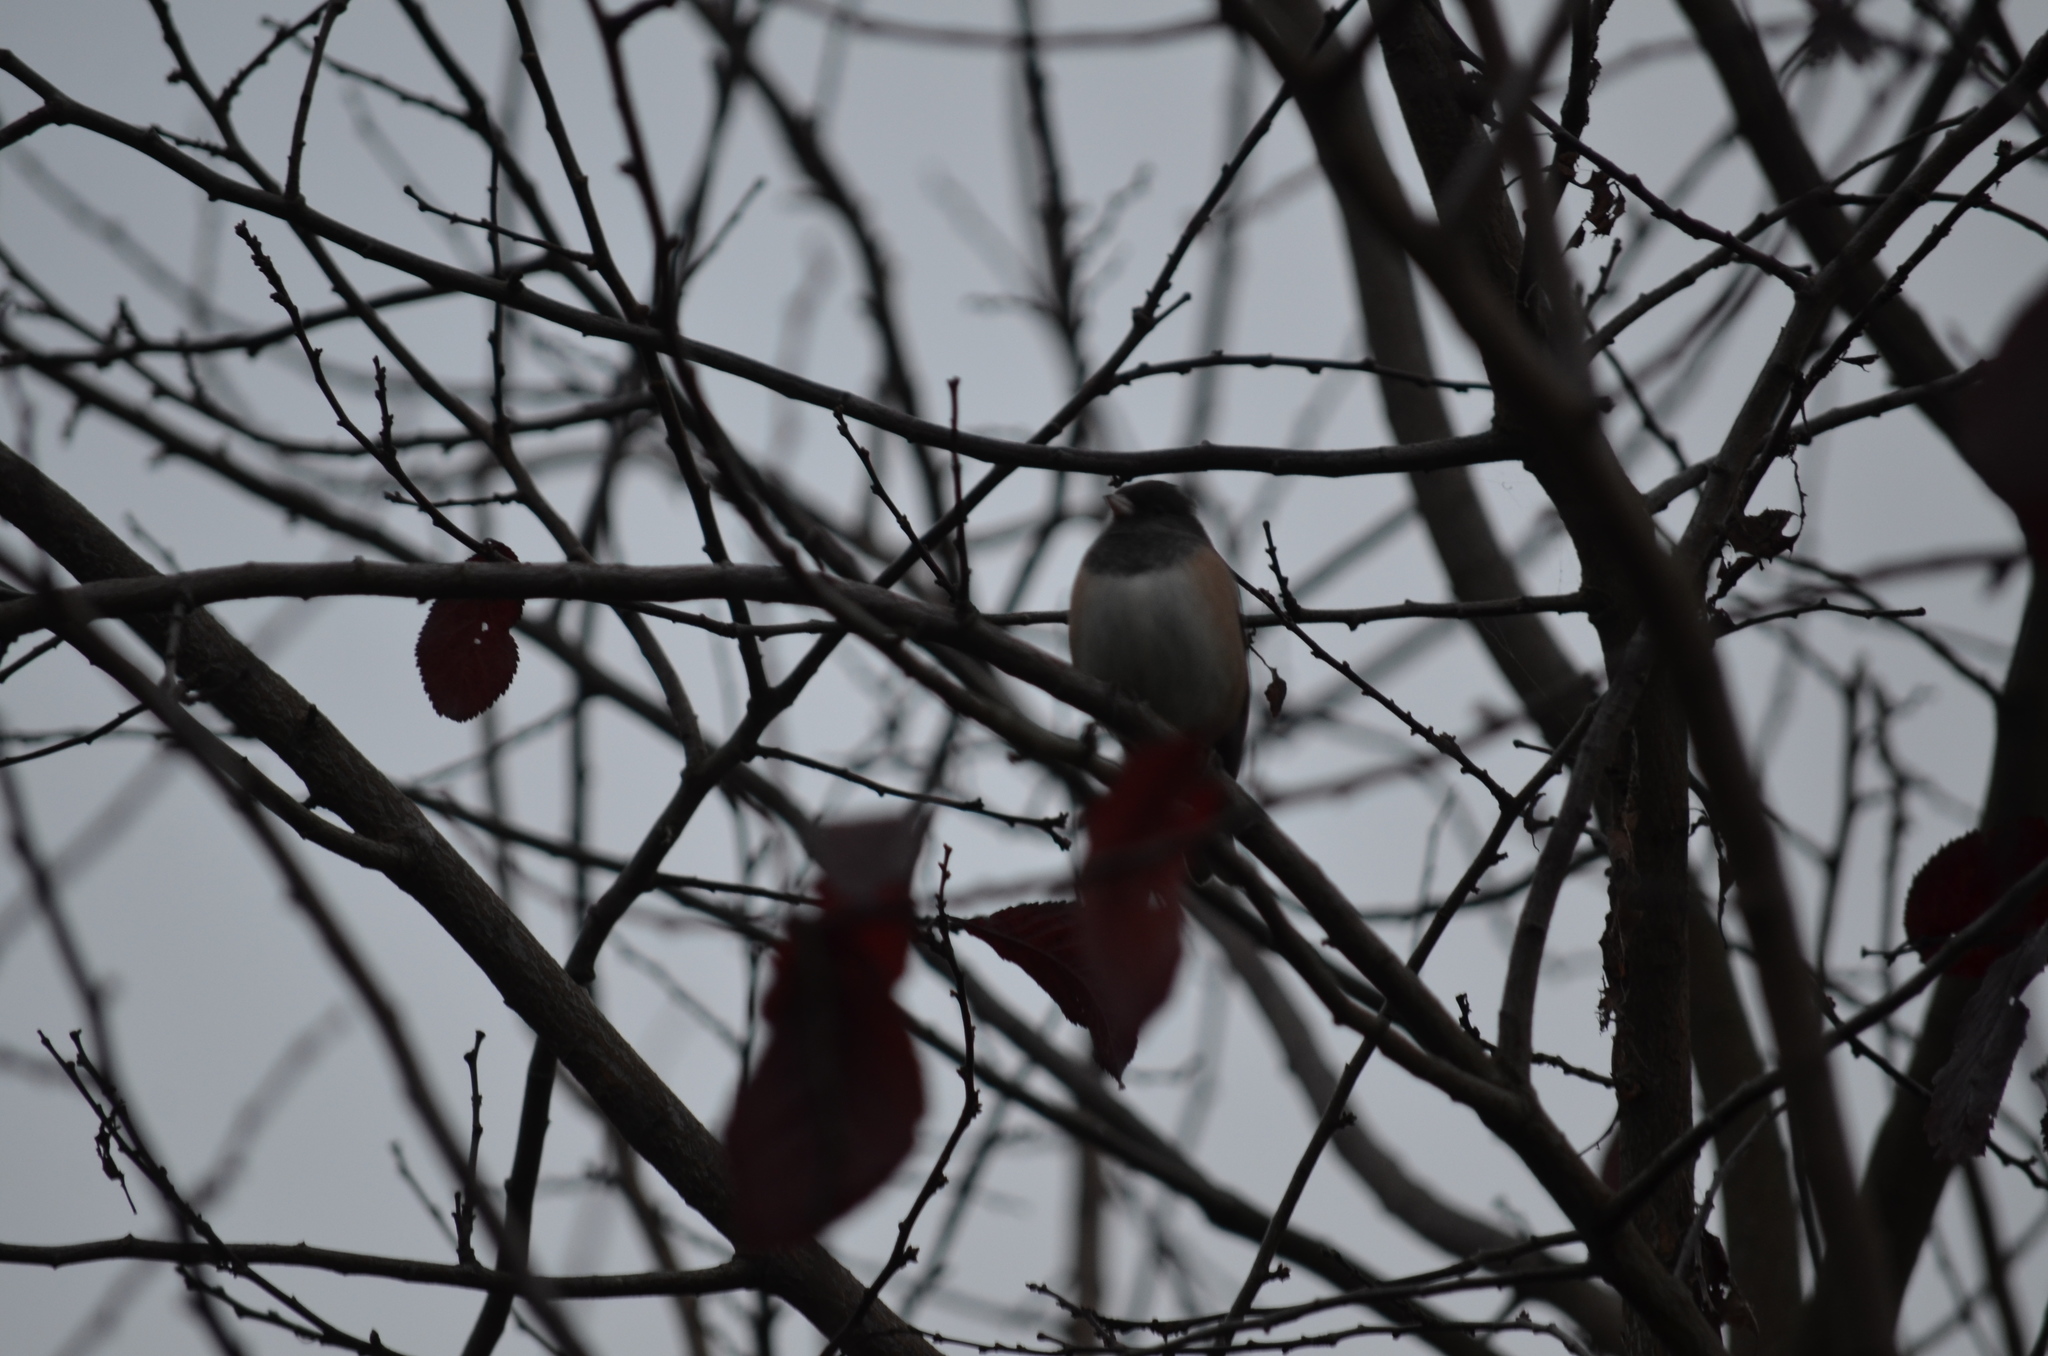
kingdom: Animalia
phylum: Chordata
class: Aves
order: Passeriformes
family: Passerellidae
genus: Junco
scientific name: Junco hyemalis
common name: Dark-eyed junco
